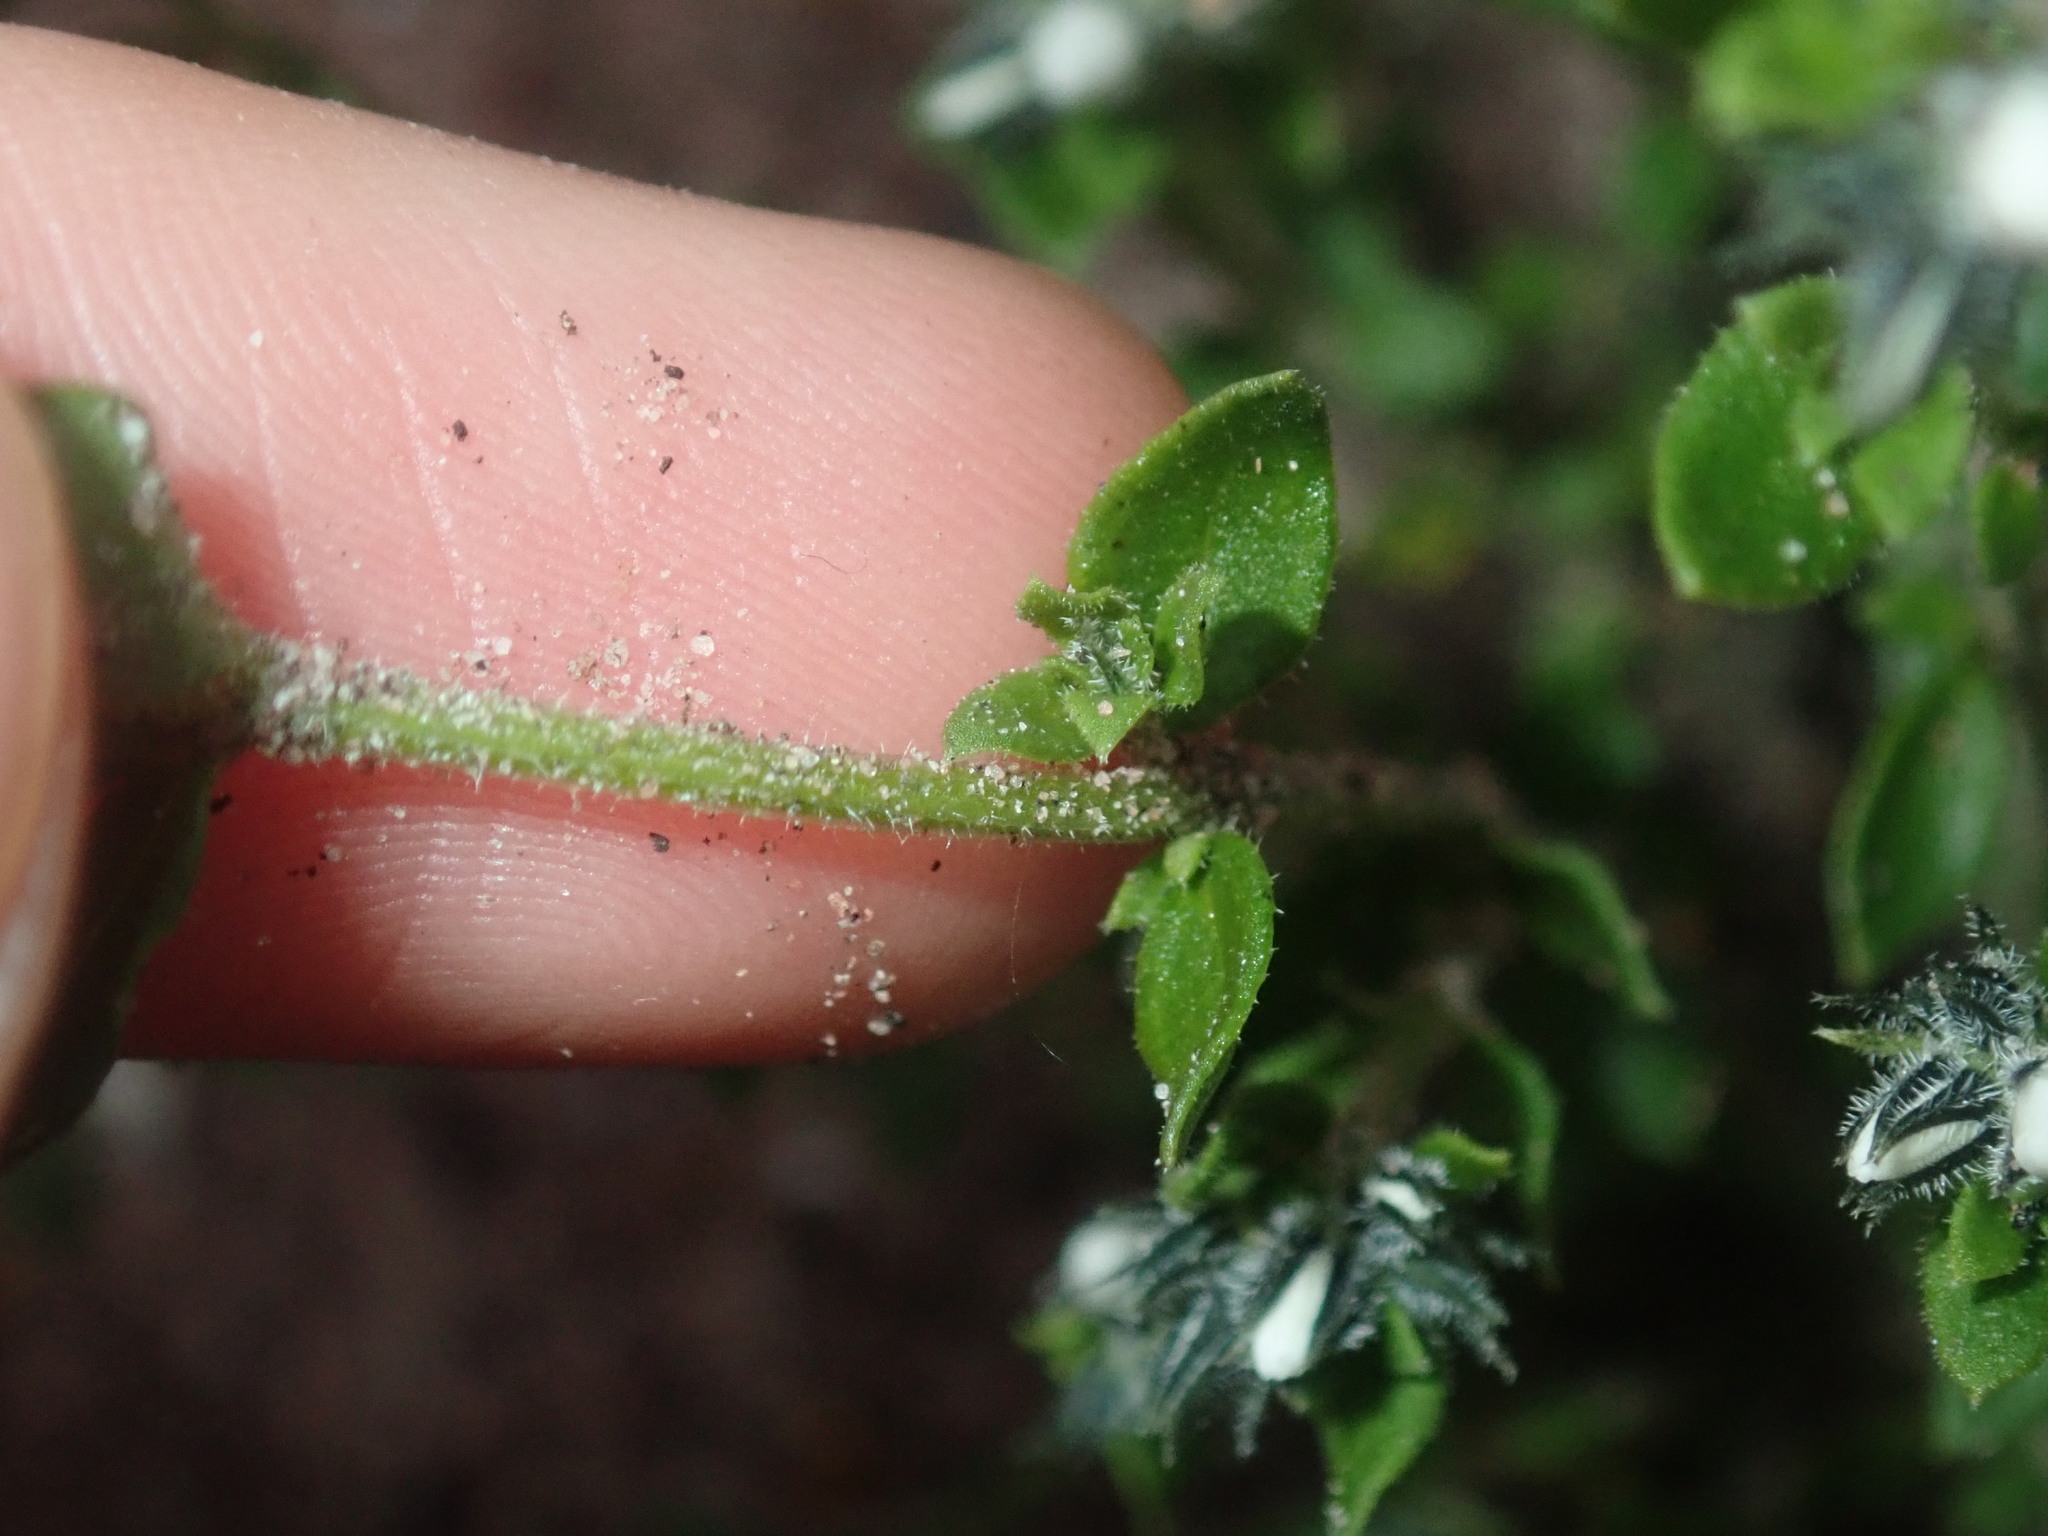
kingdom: Plantae
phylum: Tracheophyta
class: Magnoliopsida
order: Gentianales
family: Loganiaceae
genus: Orianthera
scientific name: Orianthera serpyllifolia
